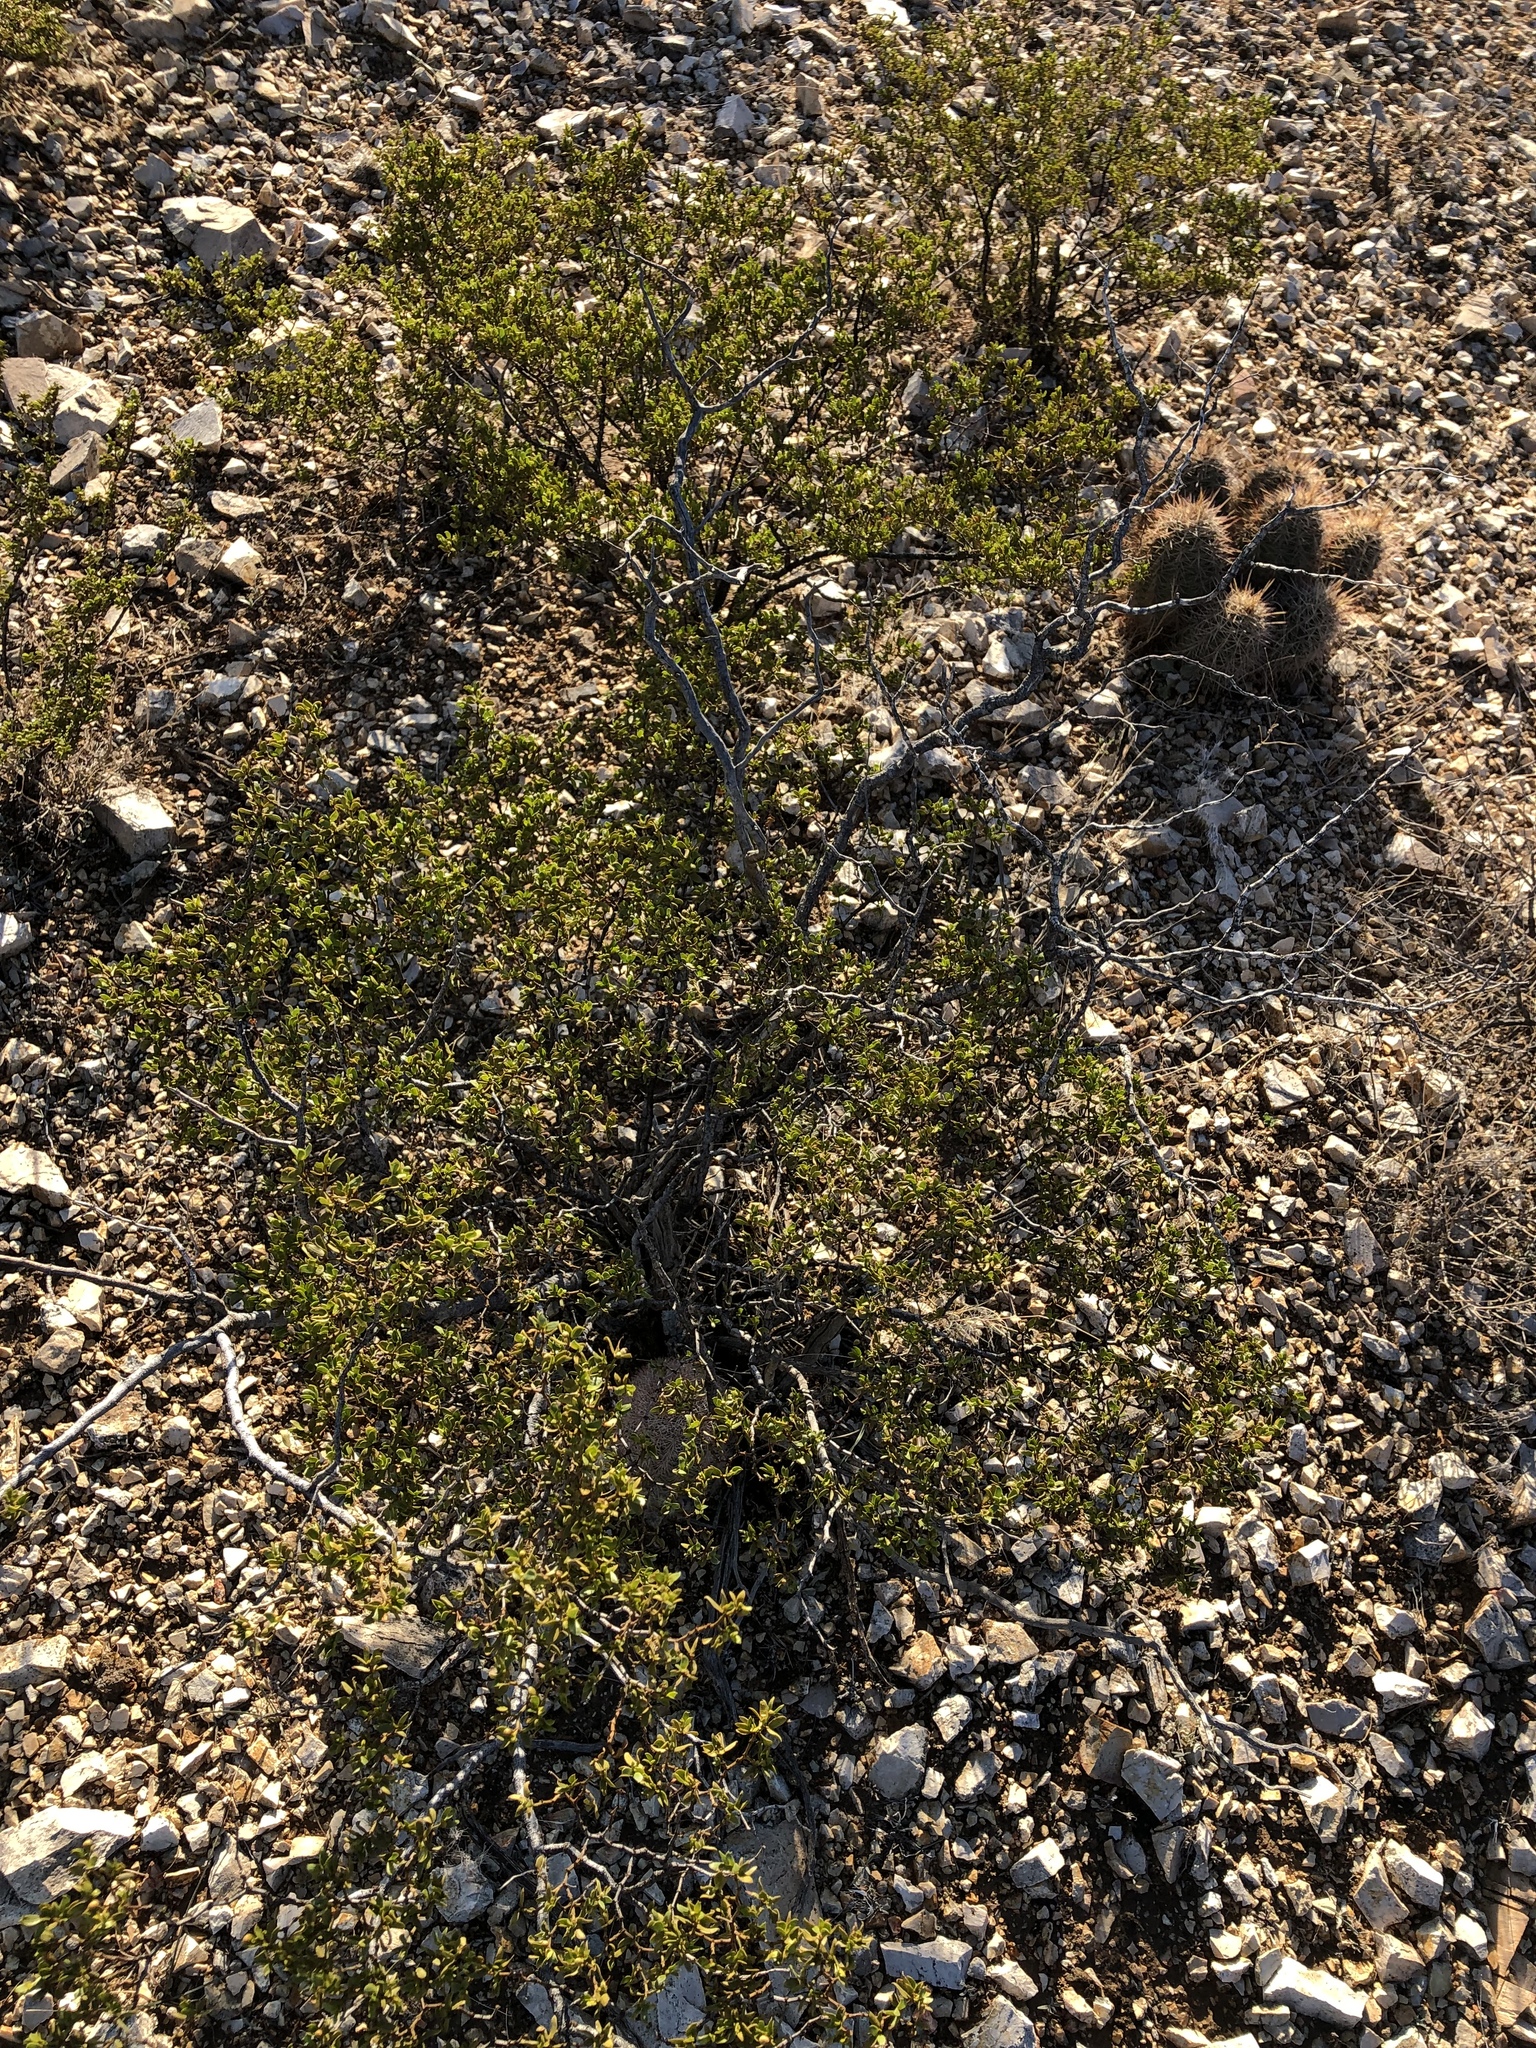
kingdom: Plantae
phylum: Tracheophyta
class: Magnoliopsida
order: Zygophyllales
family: Zygophyllaceae
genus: Larrea
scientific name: Larrea tridentata
